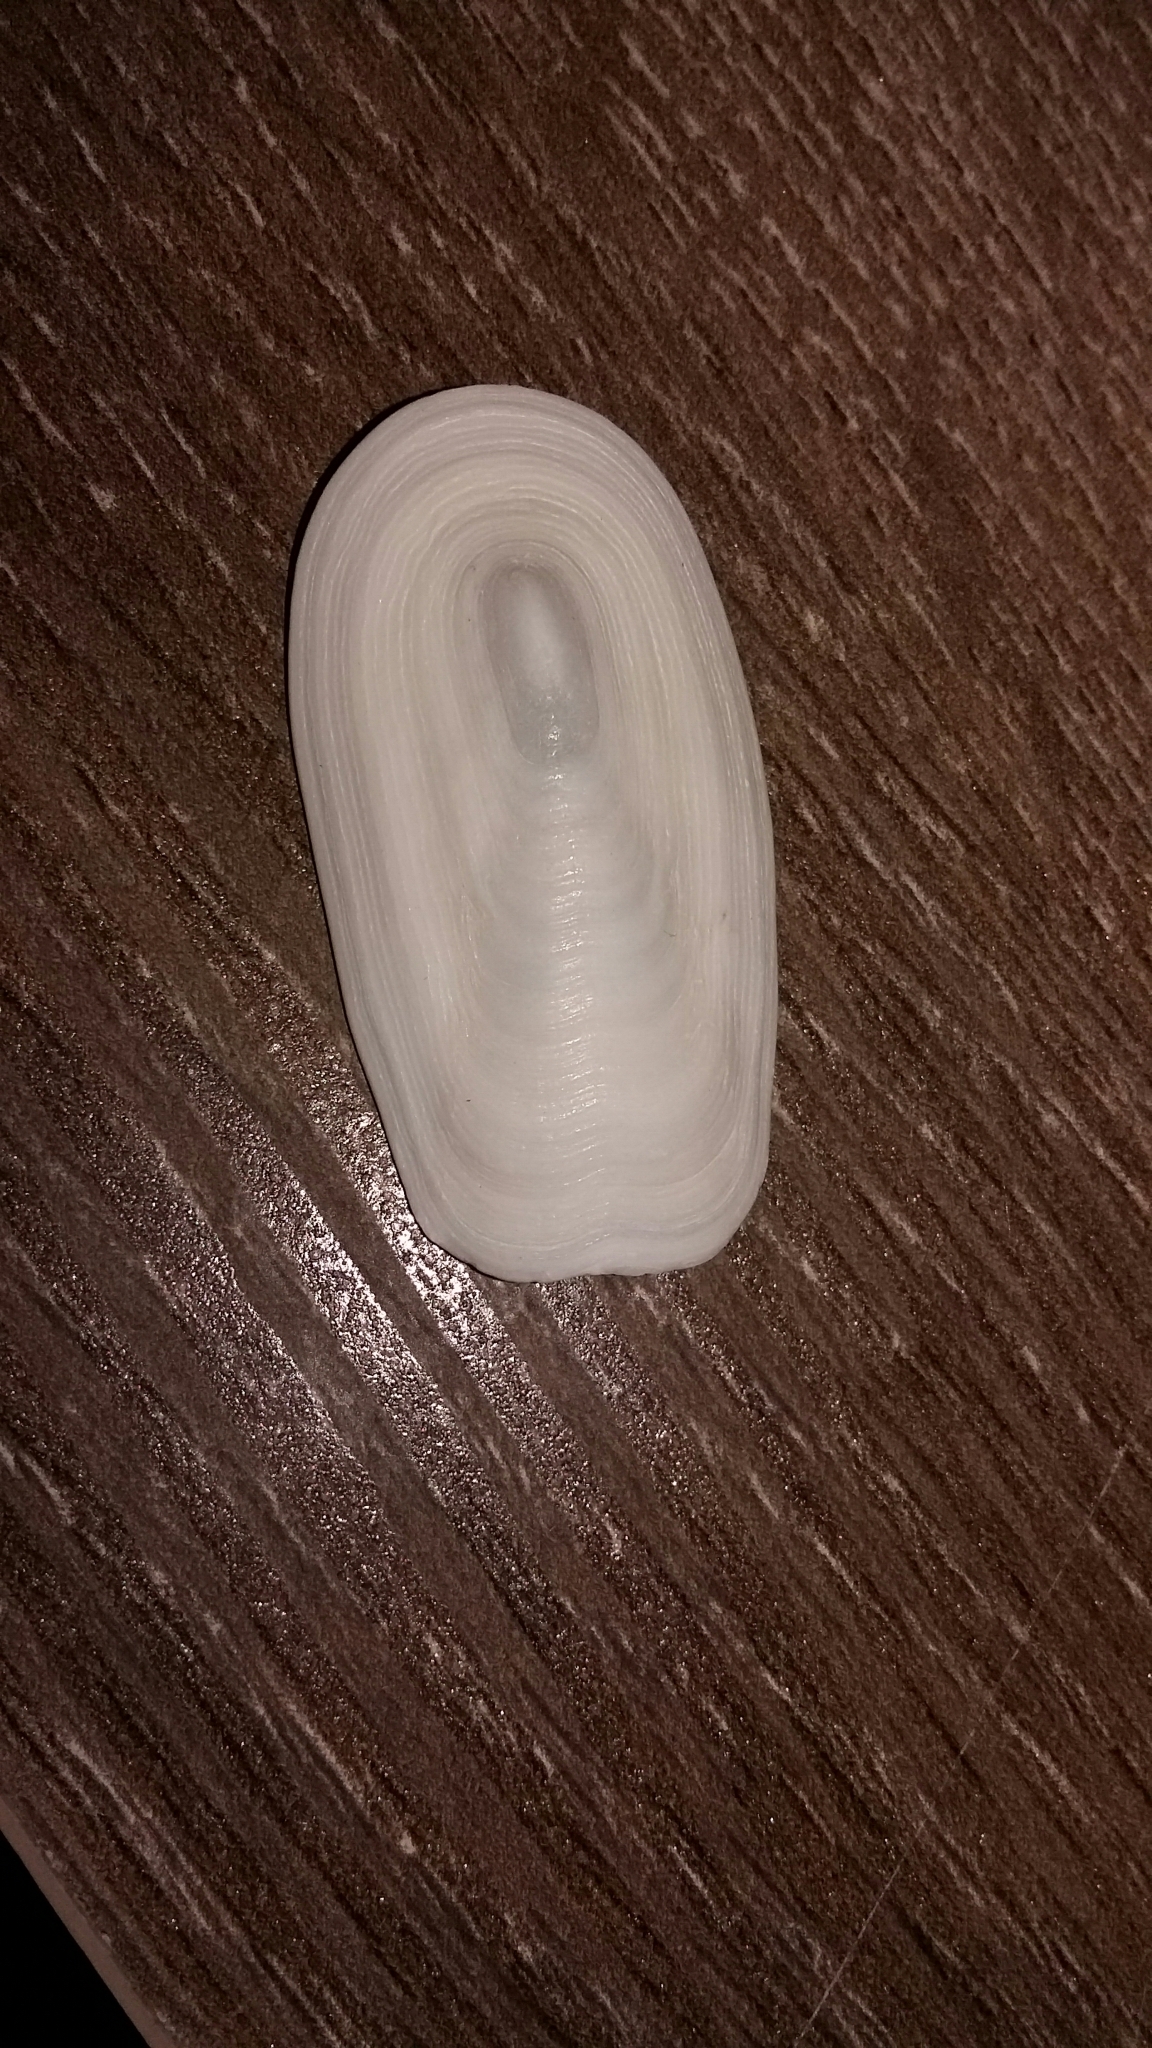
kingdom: Animalia
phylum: Mollusca
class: Gastropoda
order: Lepetellida
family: Fissurellidae
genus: Scutus
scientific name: Scutus breviculus
